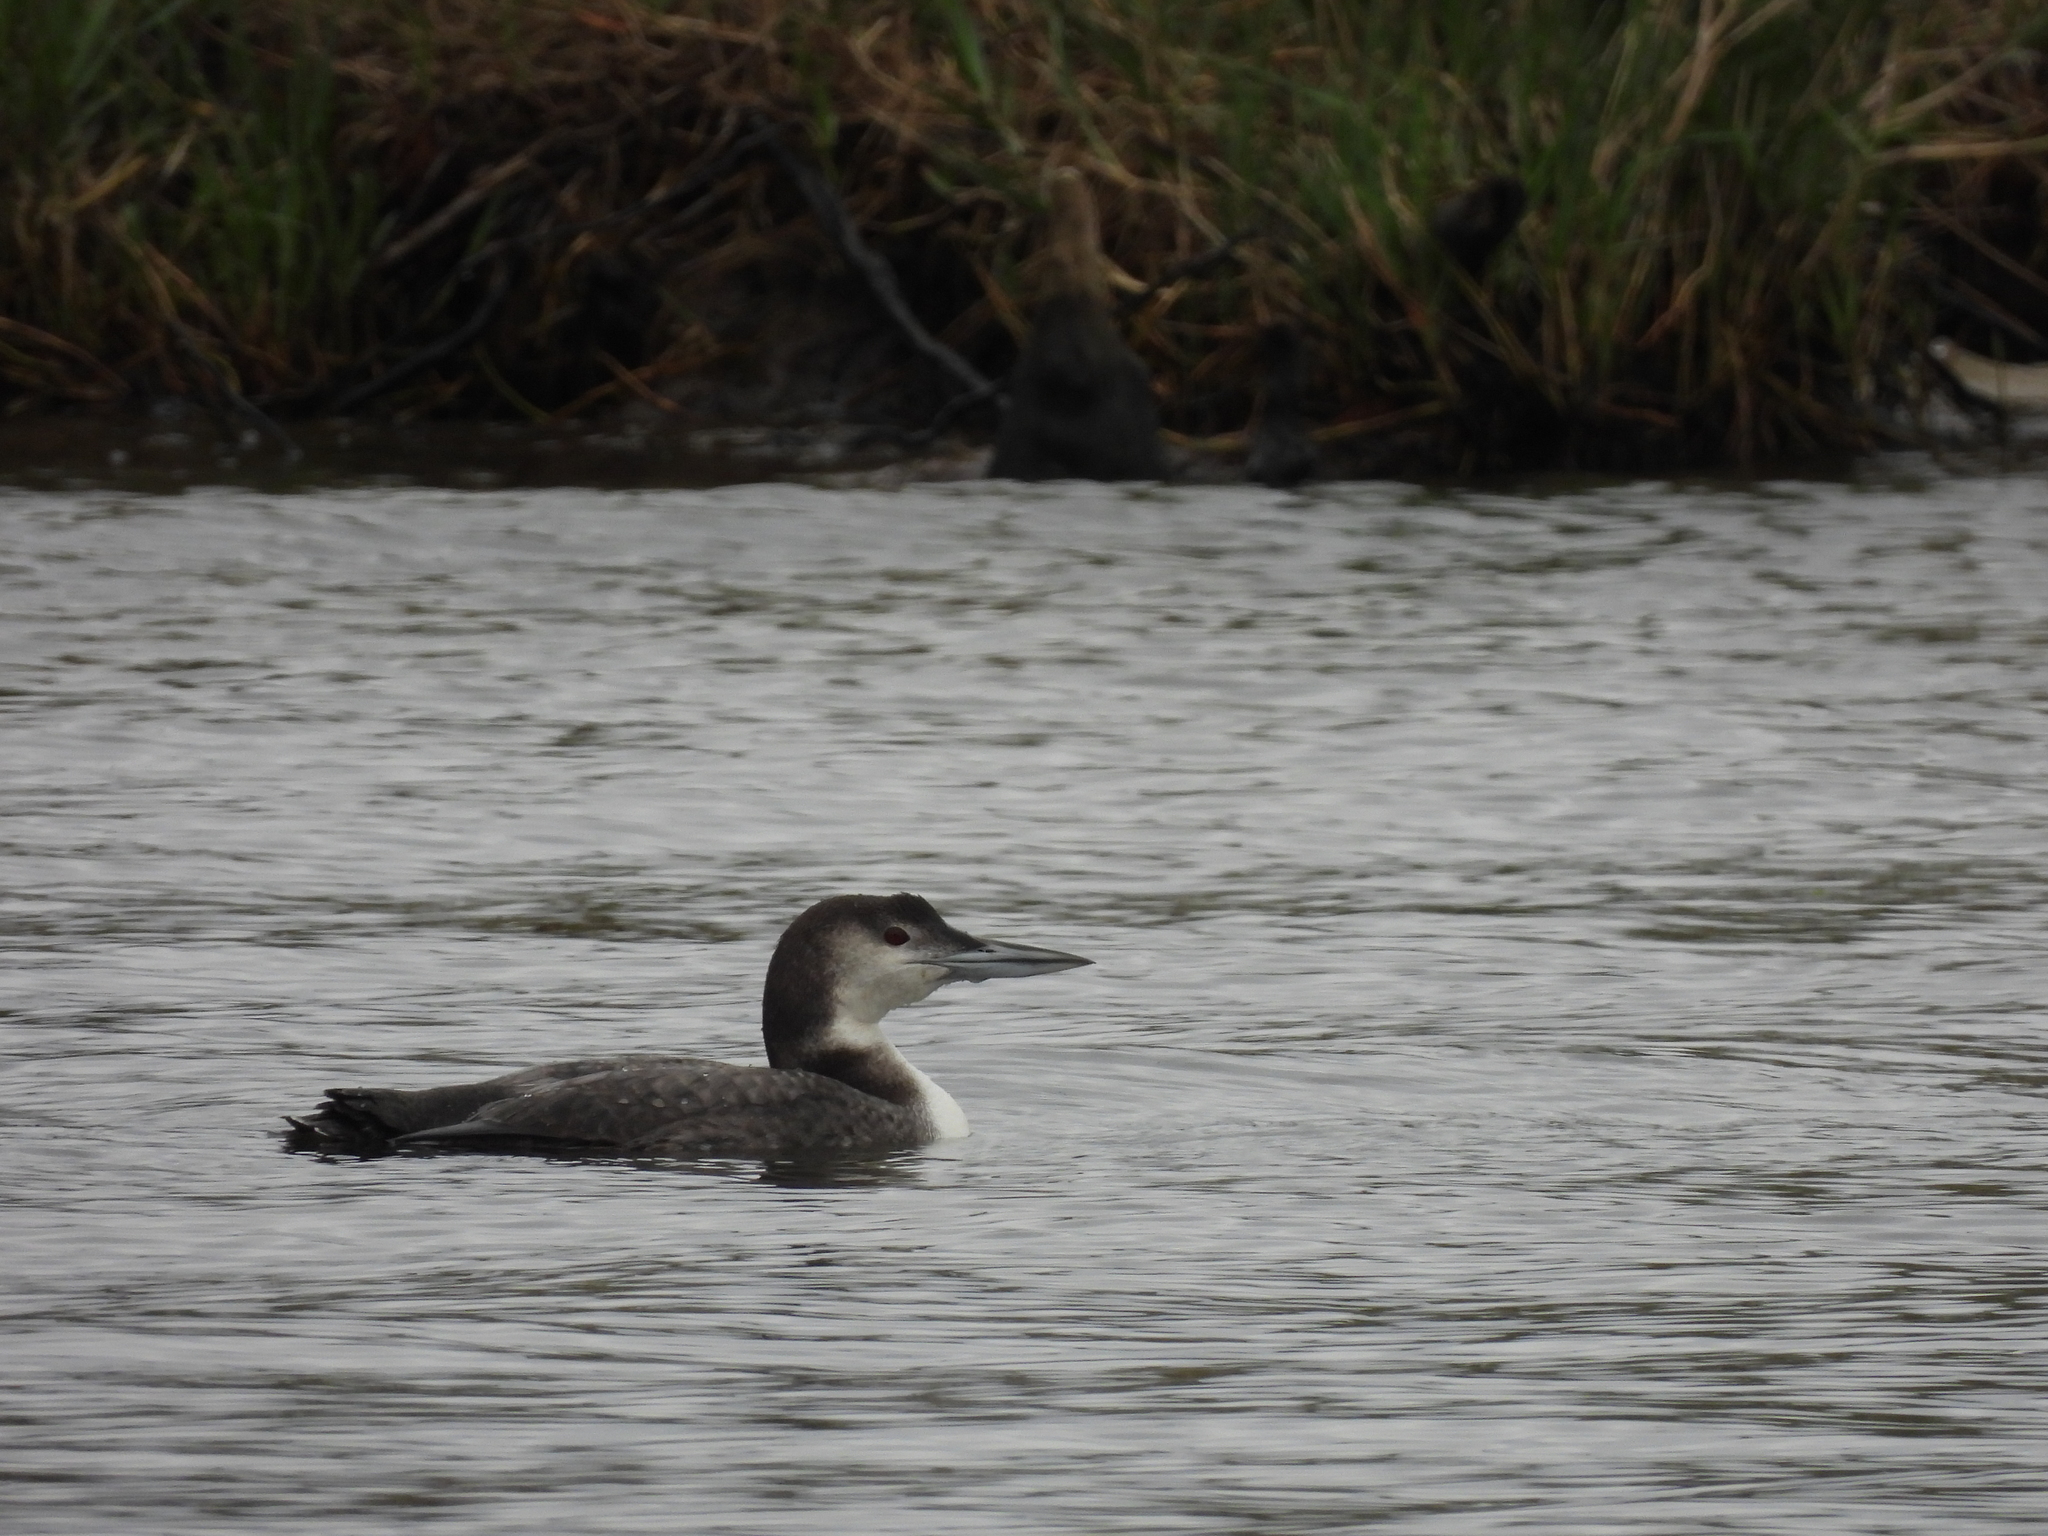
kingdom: Animalia
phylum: Chordata
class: Aves
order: Gaviiformes
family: Gaviidae
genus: Gavia
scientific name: Gavia immer
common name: Common loon
